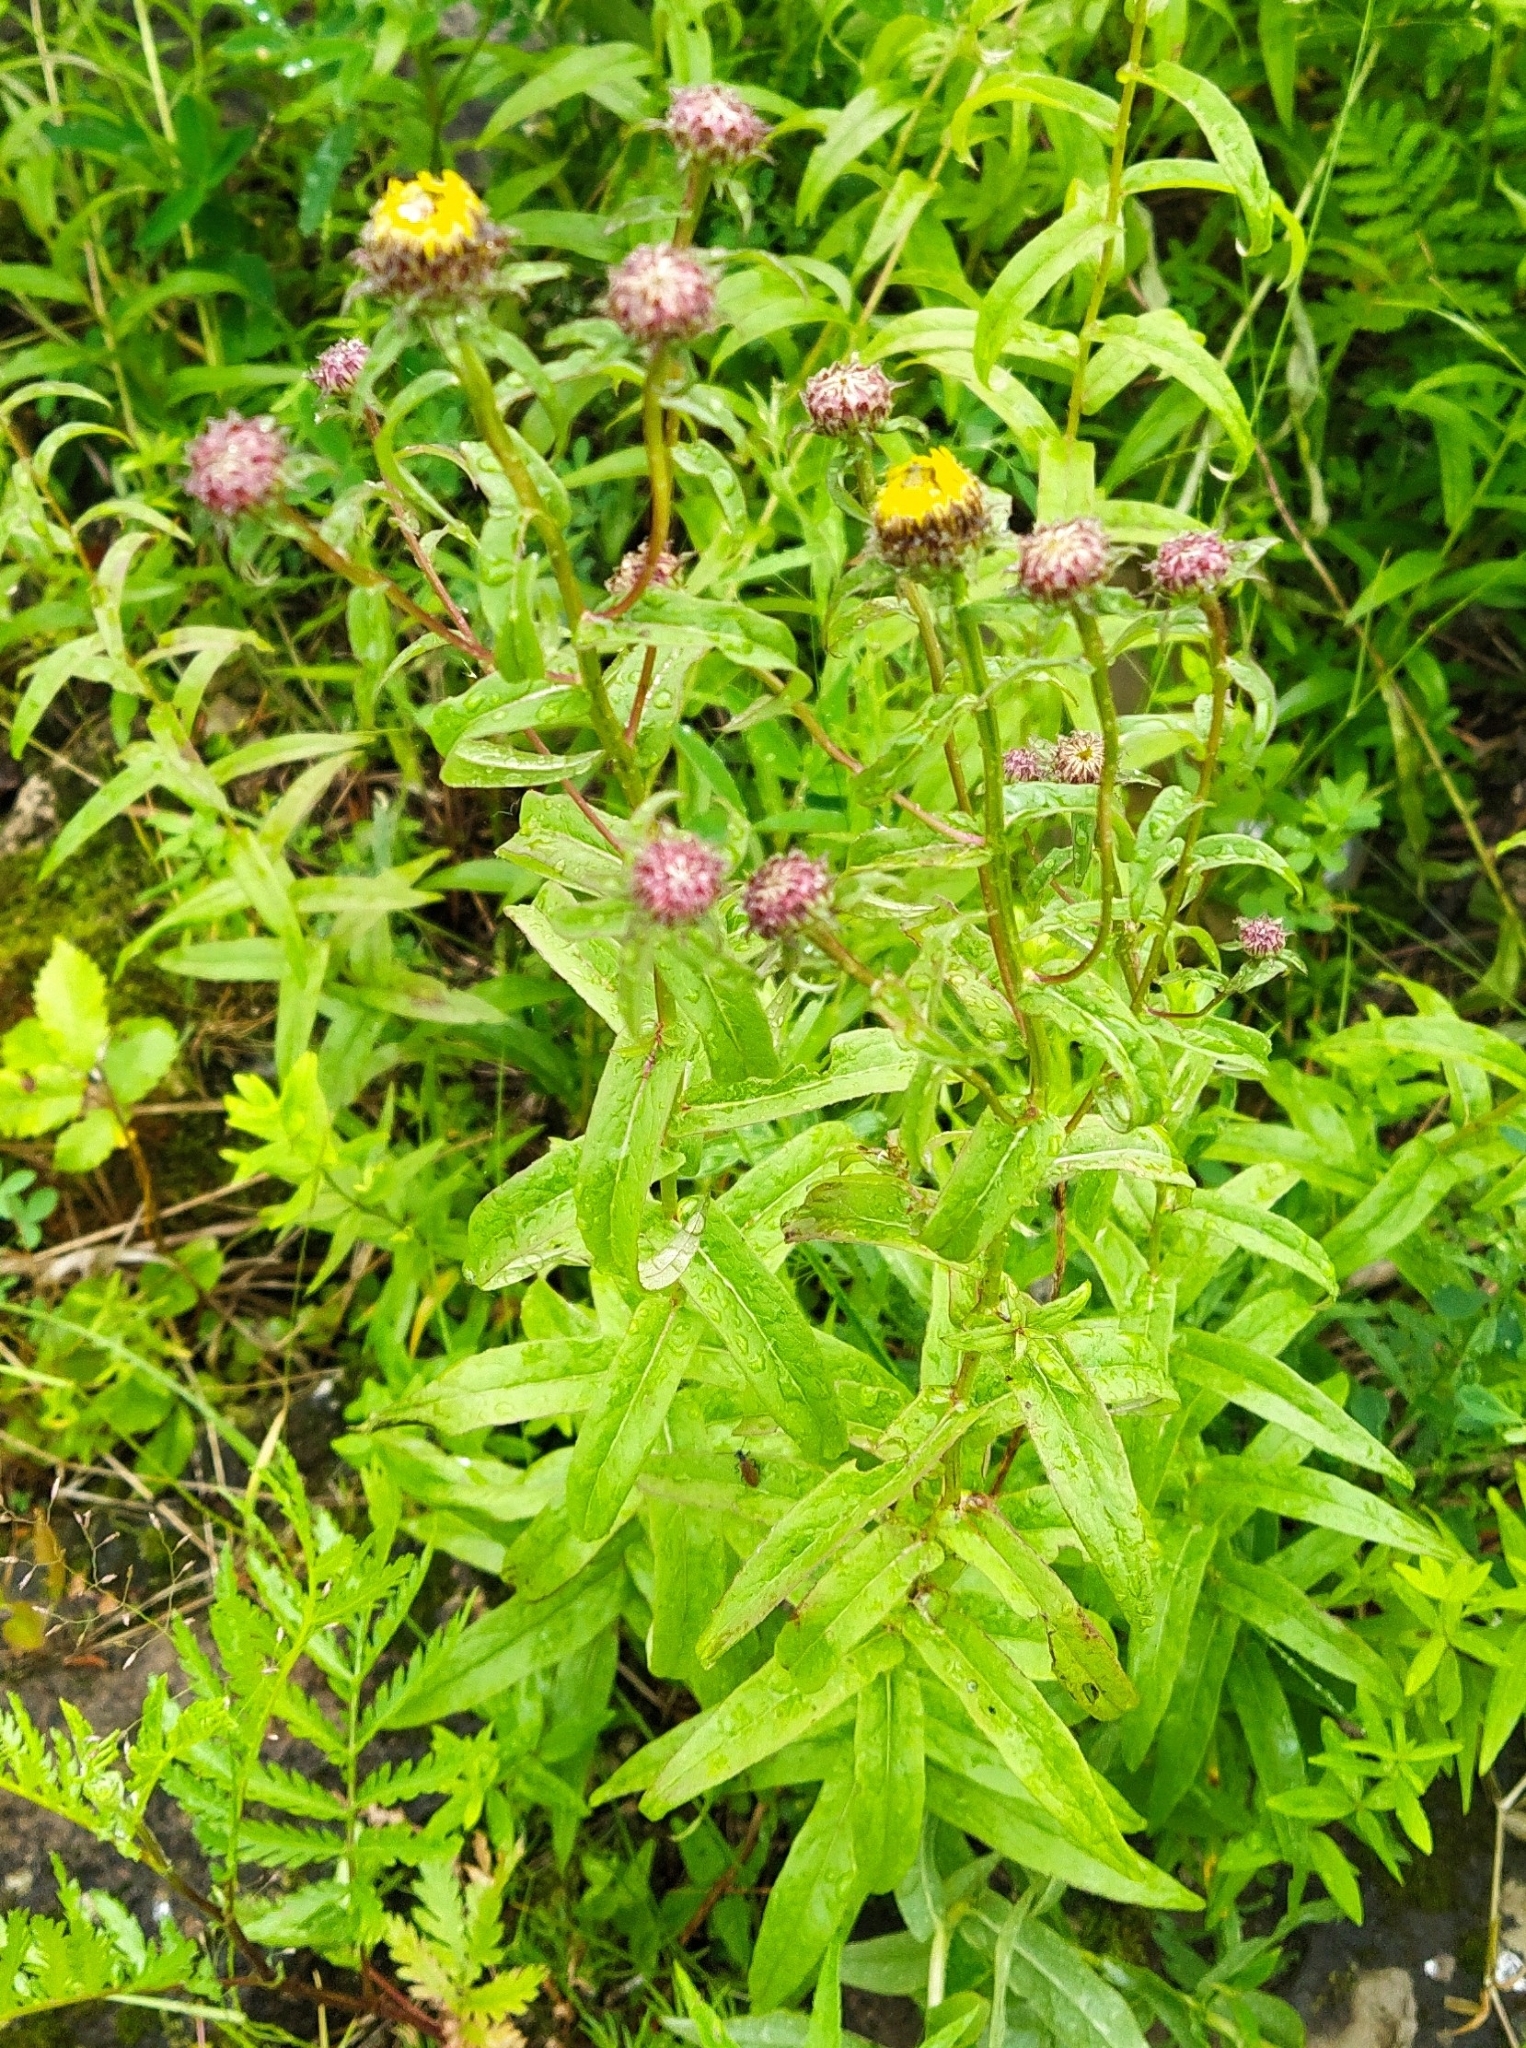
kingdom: Plantae
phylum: Tracheophyta
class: Magnoliopsida
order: Asterales
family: Asteraceae
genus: Pentanema
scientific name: Pentanema salicinum
